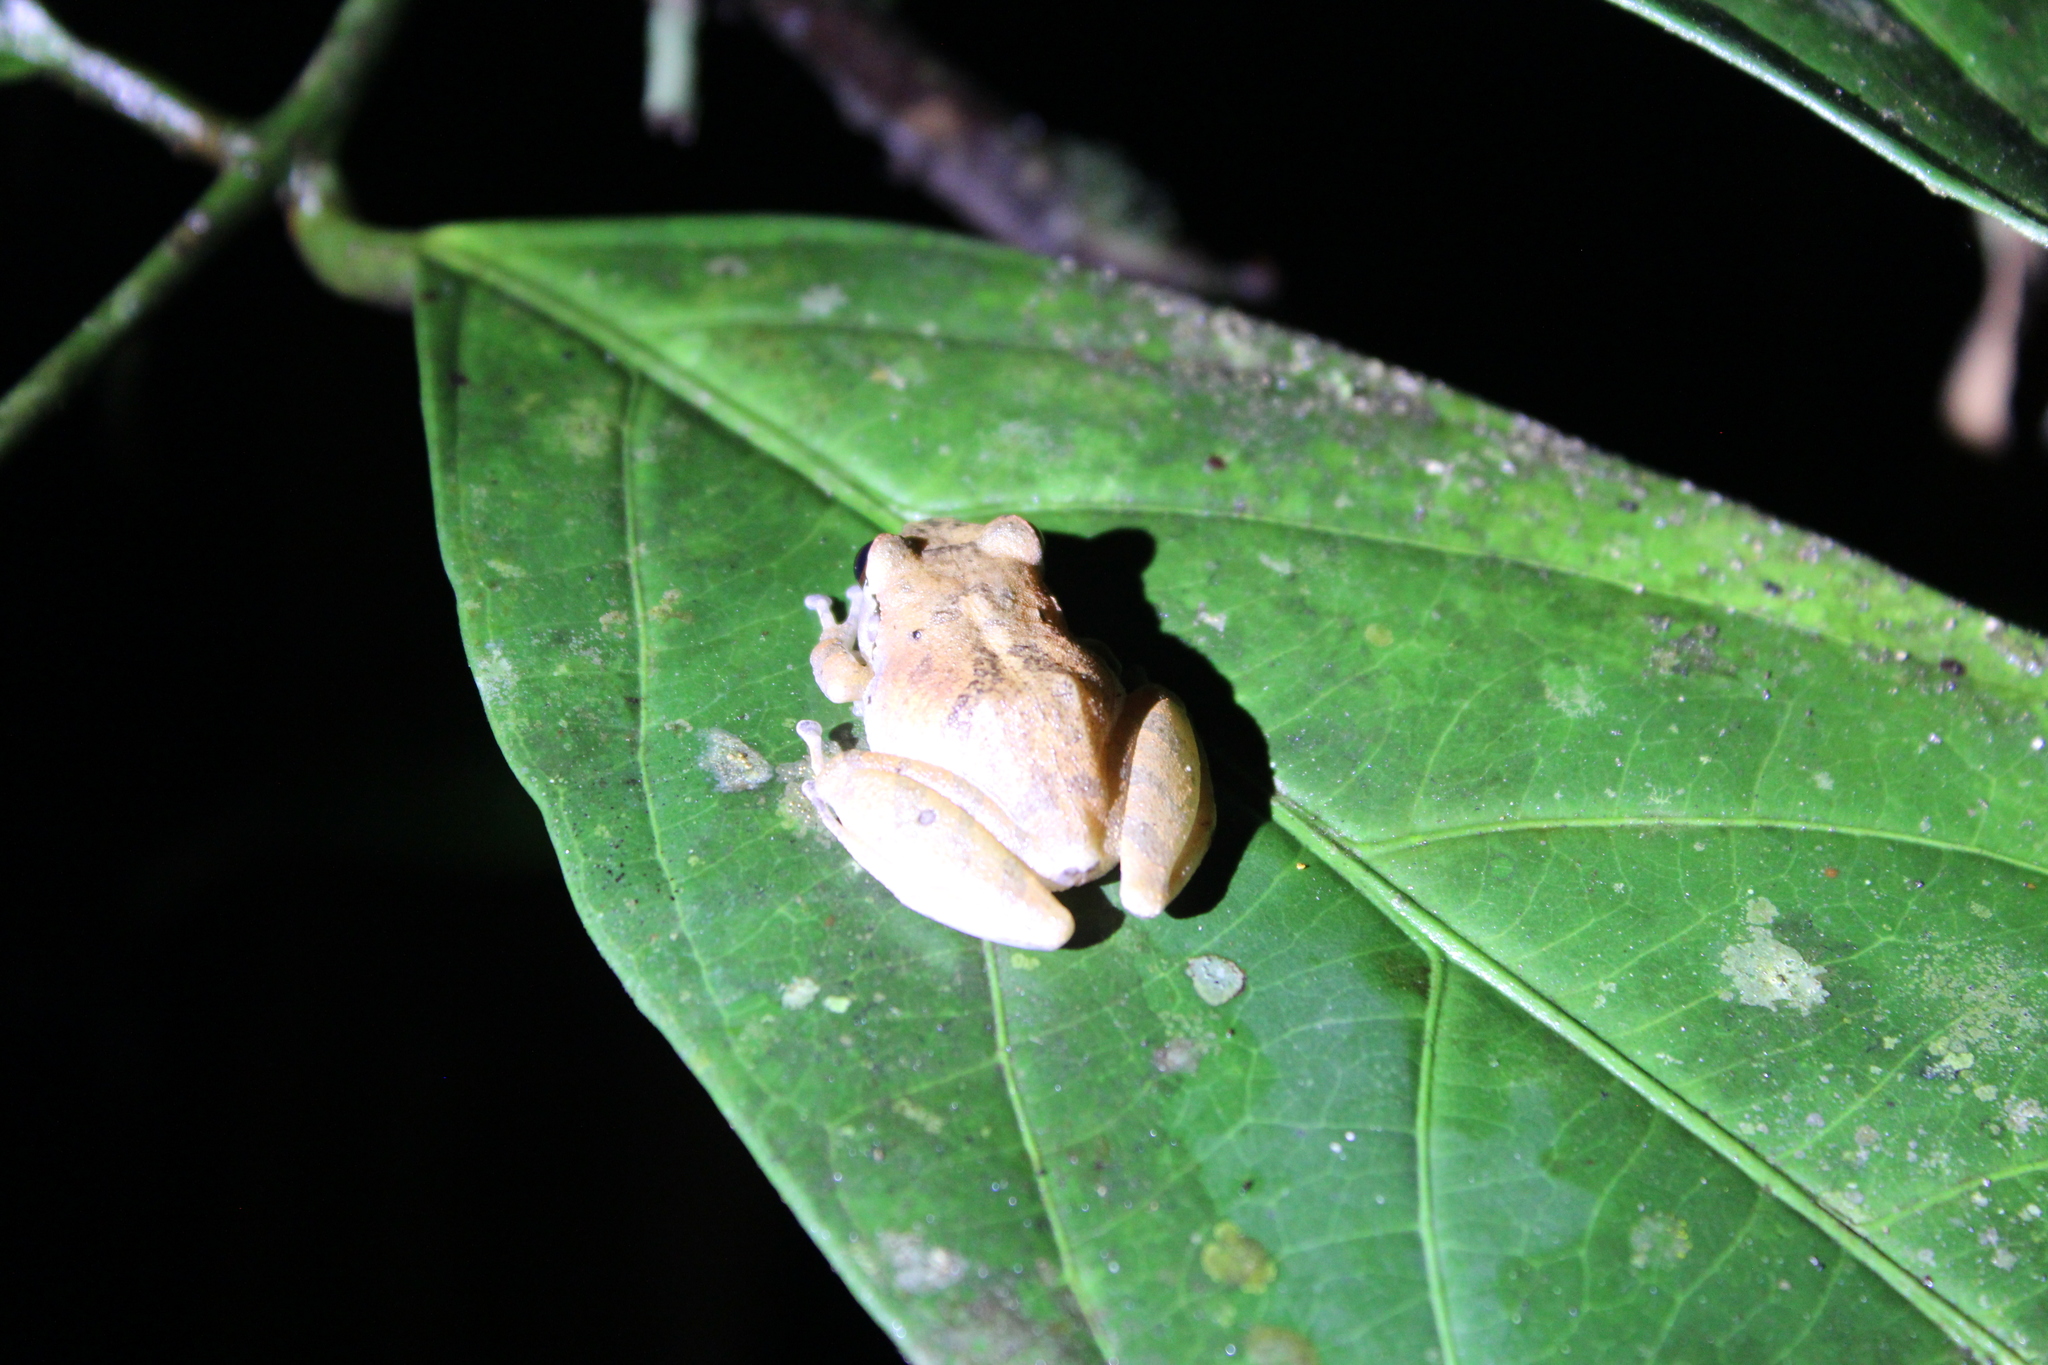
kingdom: Animalia
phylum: Chordata
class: Amphibia
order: Anura
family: Craugastoridae
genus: Pristimantis
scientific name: Pristimantis reichlei
